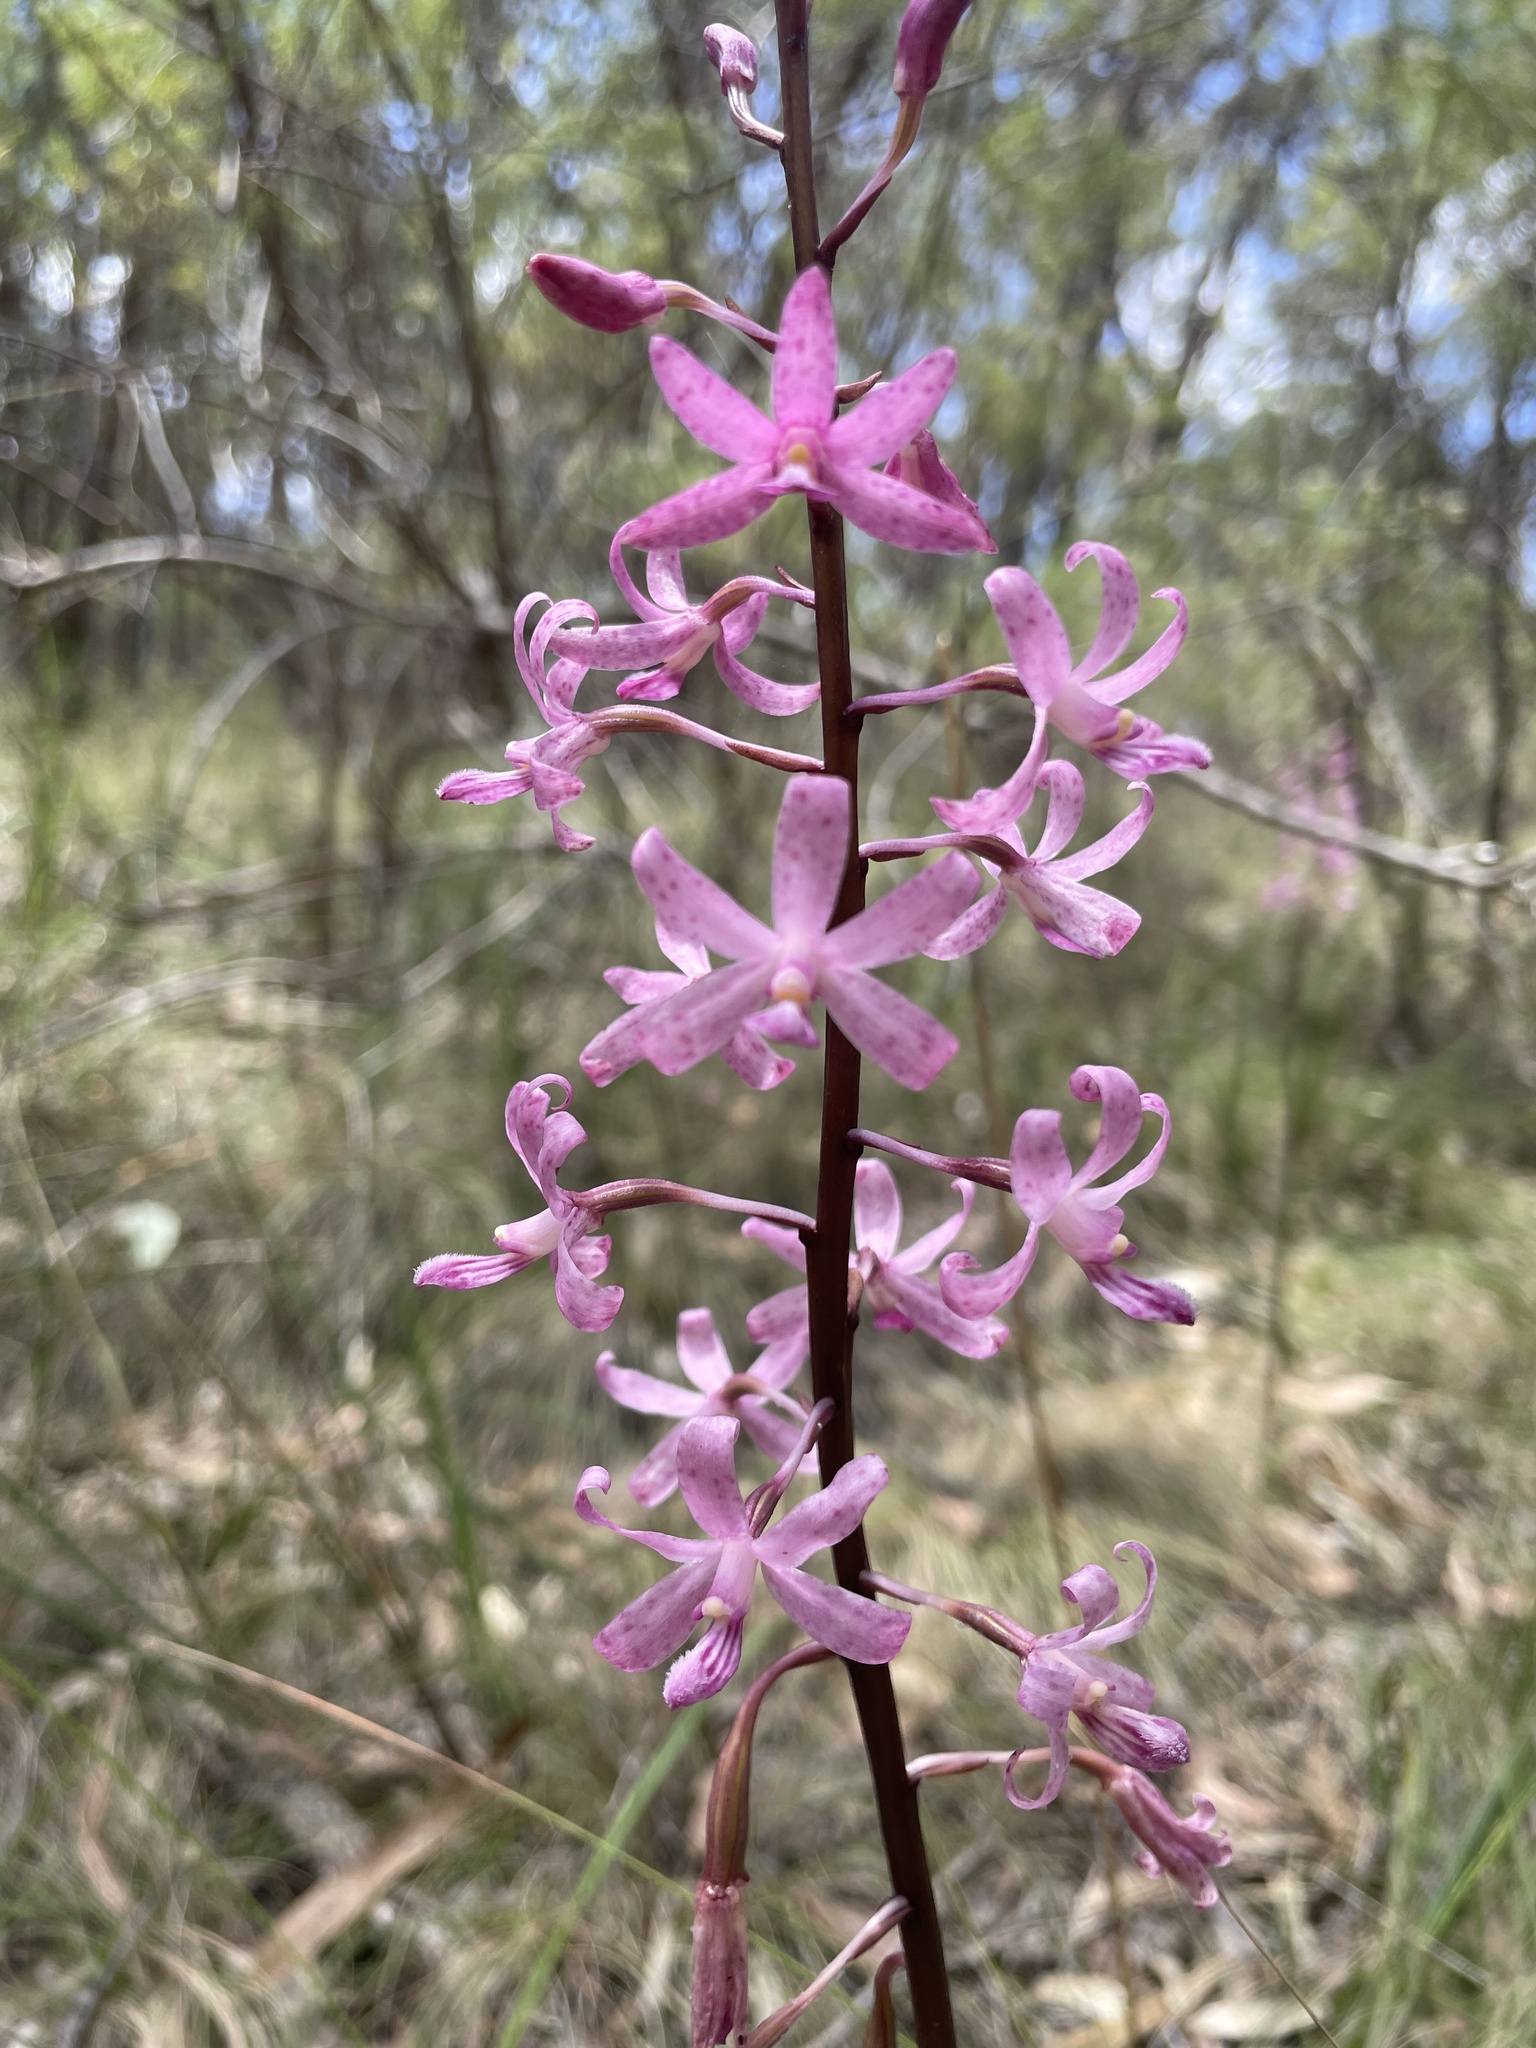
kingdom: Plantae
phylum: Tracheophyta
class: Liliopsida
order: Asparagales
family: Orchidaceae
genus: Dipodium
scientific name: Dipodium roseum
